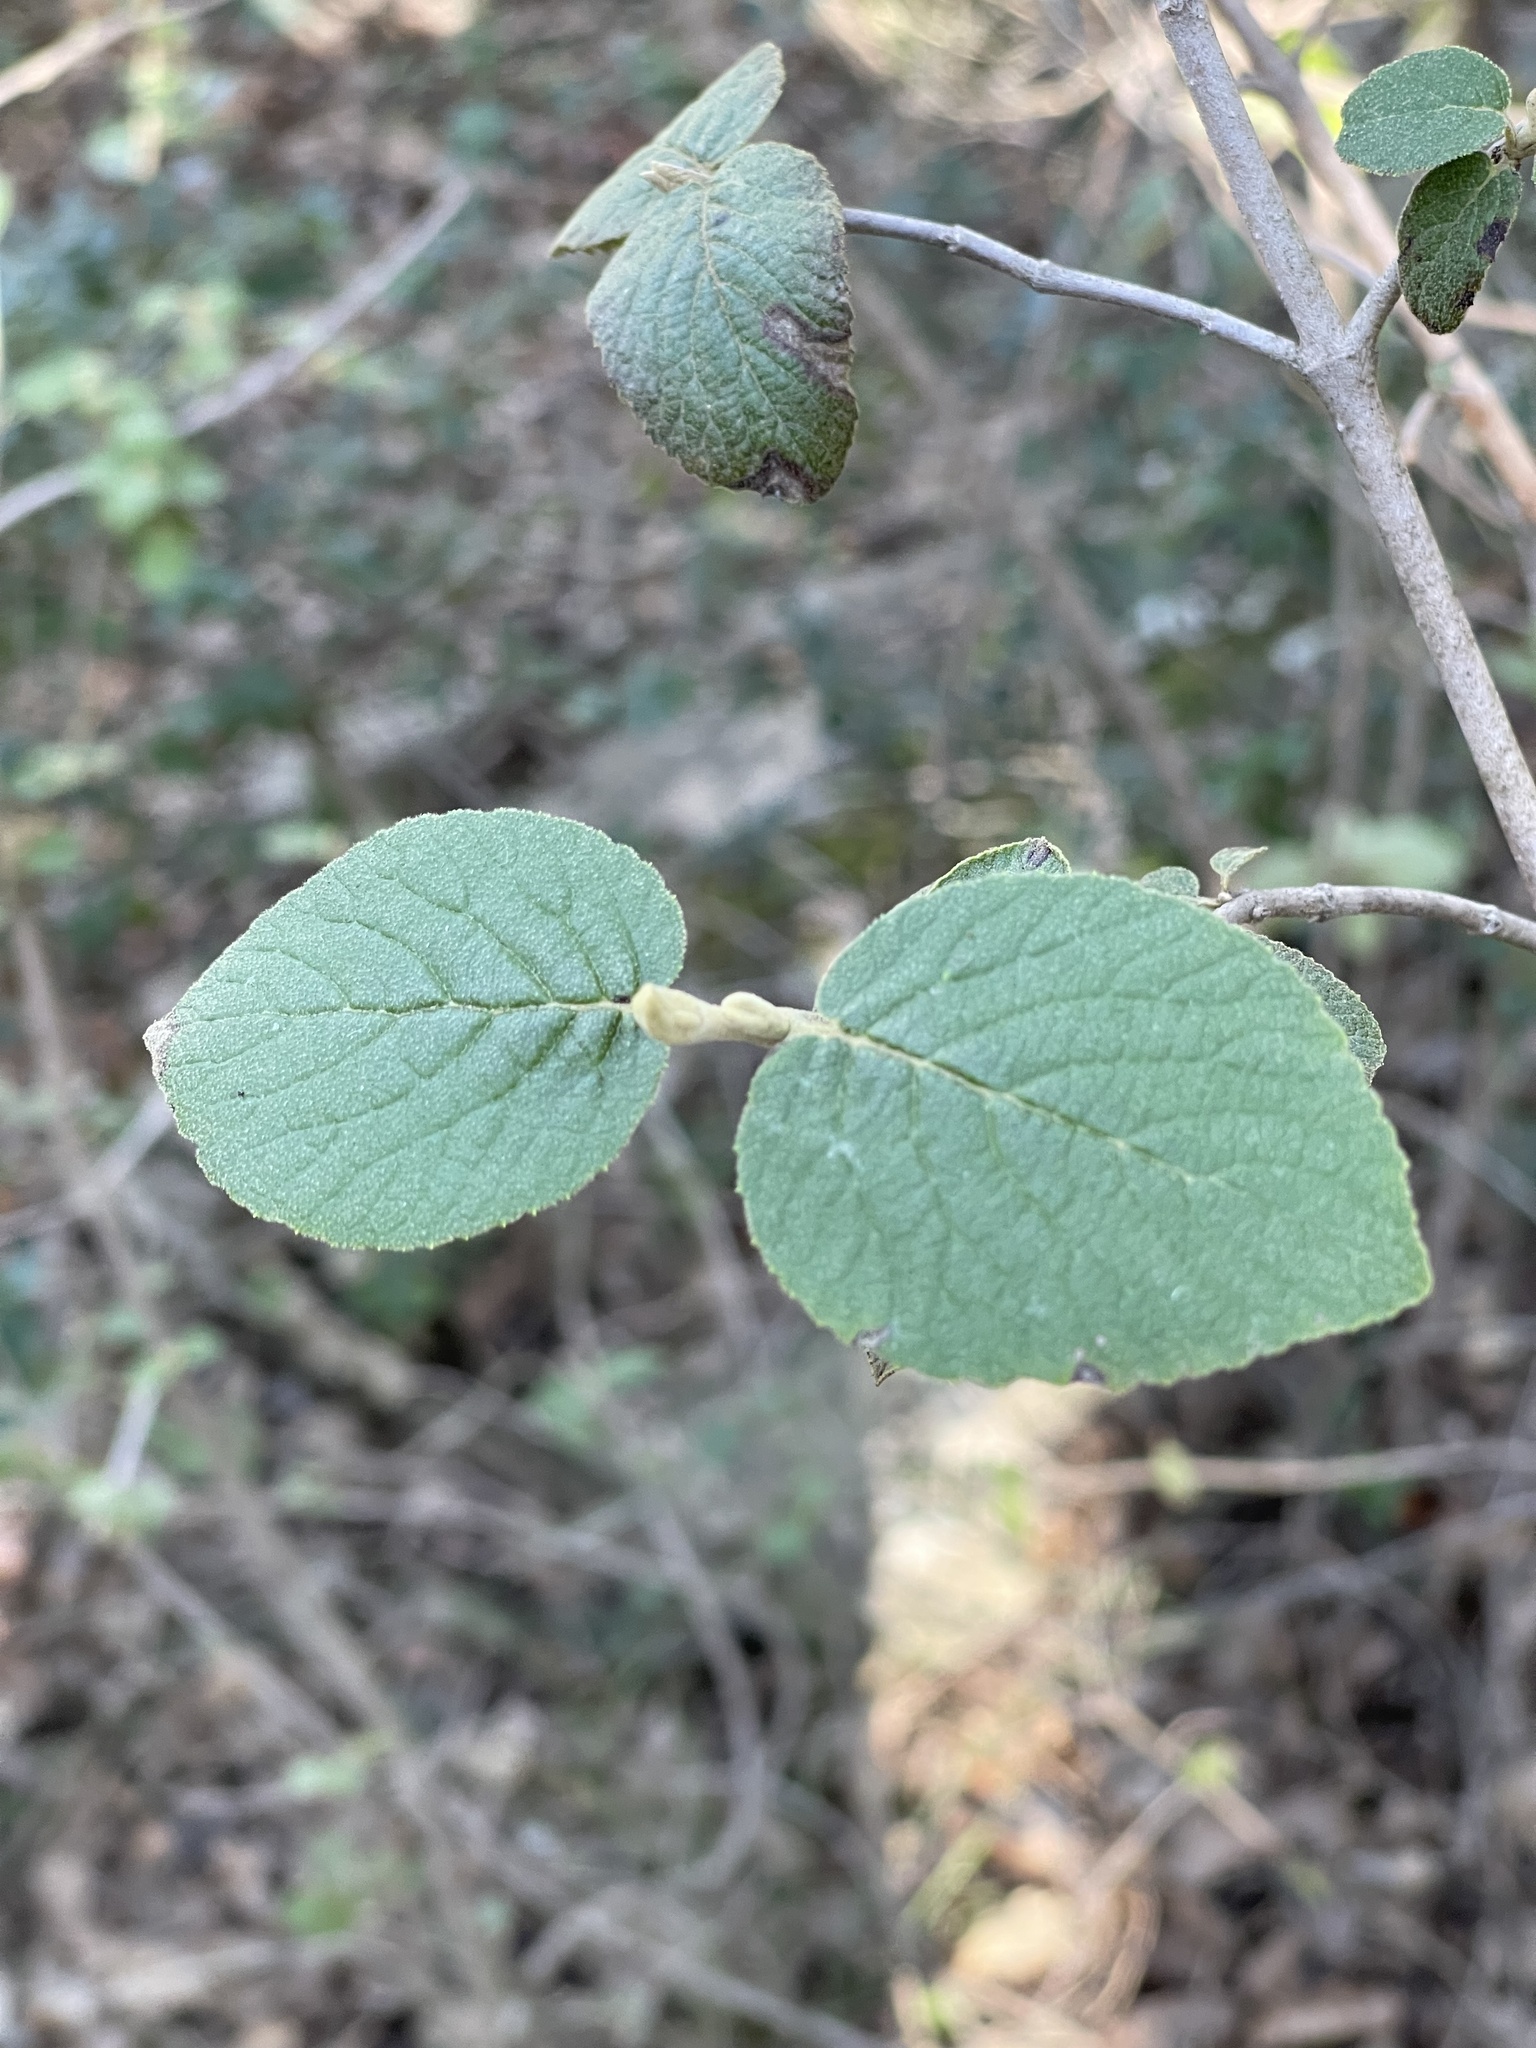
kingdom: Plantae
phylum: Tracheophyta
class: Magnoliopsida
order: Dipsacales
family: Viburnaceae
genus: Viburnum
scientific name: Viburnum lantana
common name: Wayfaring tree
